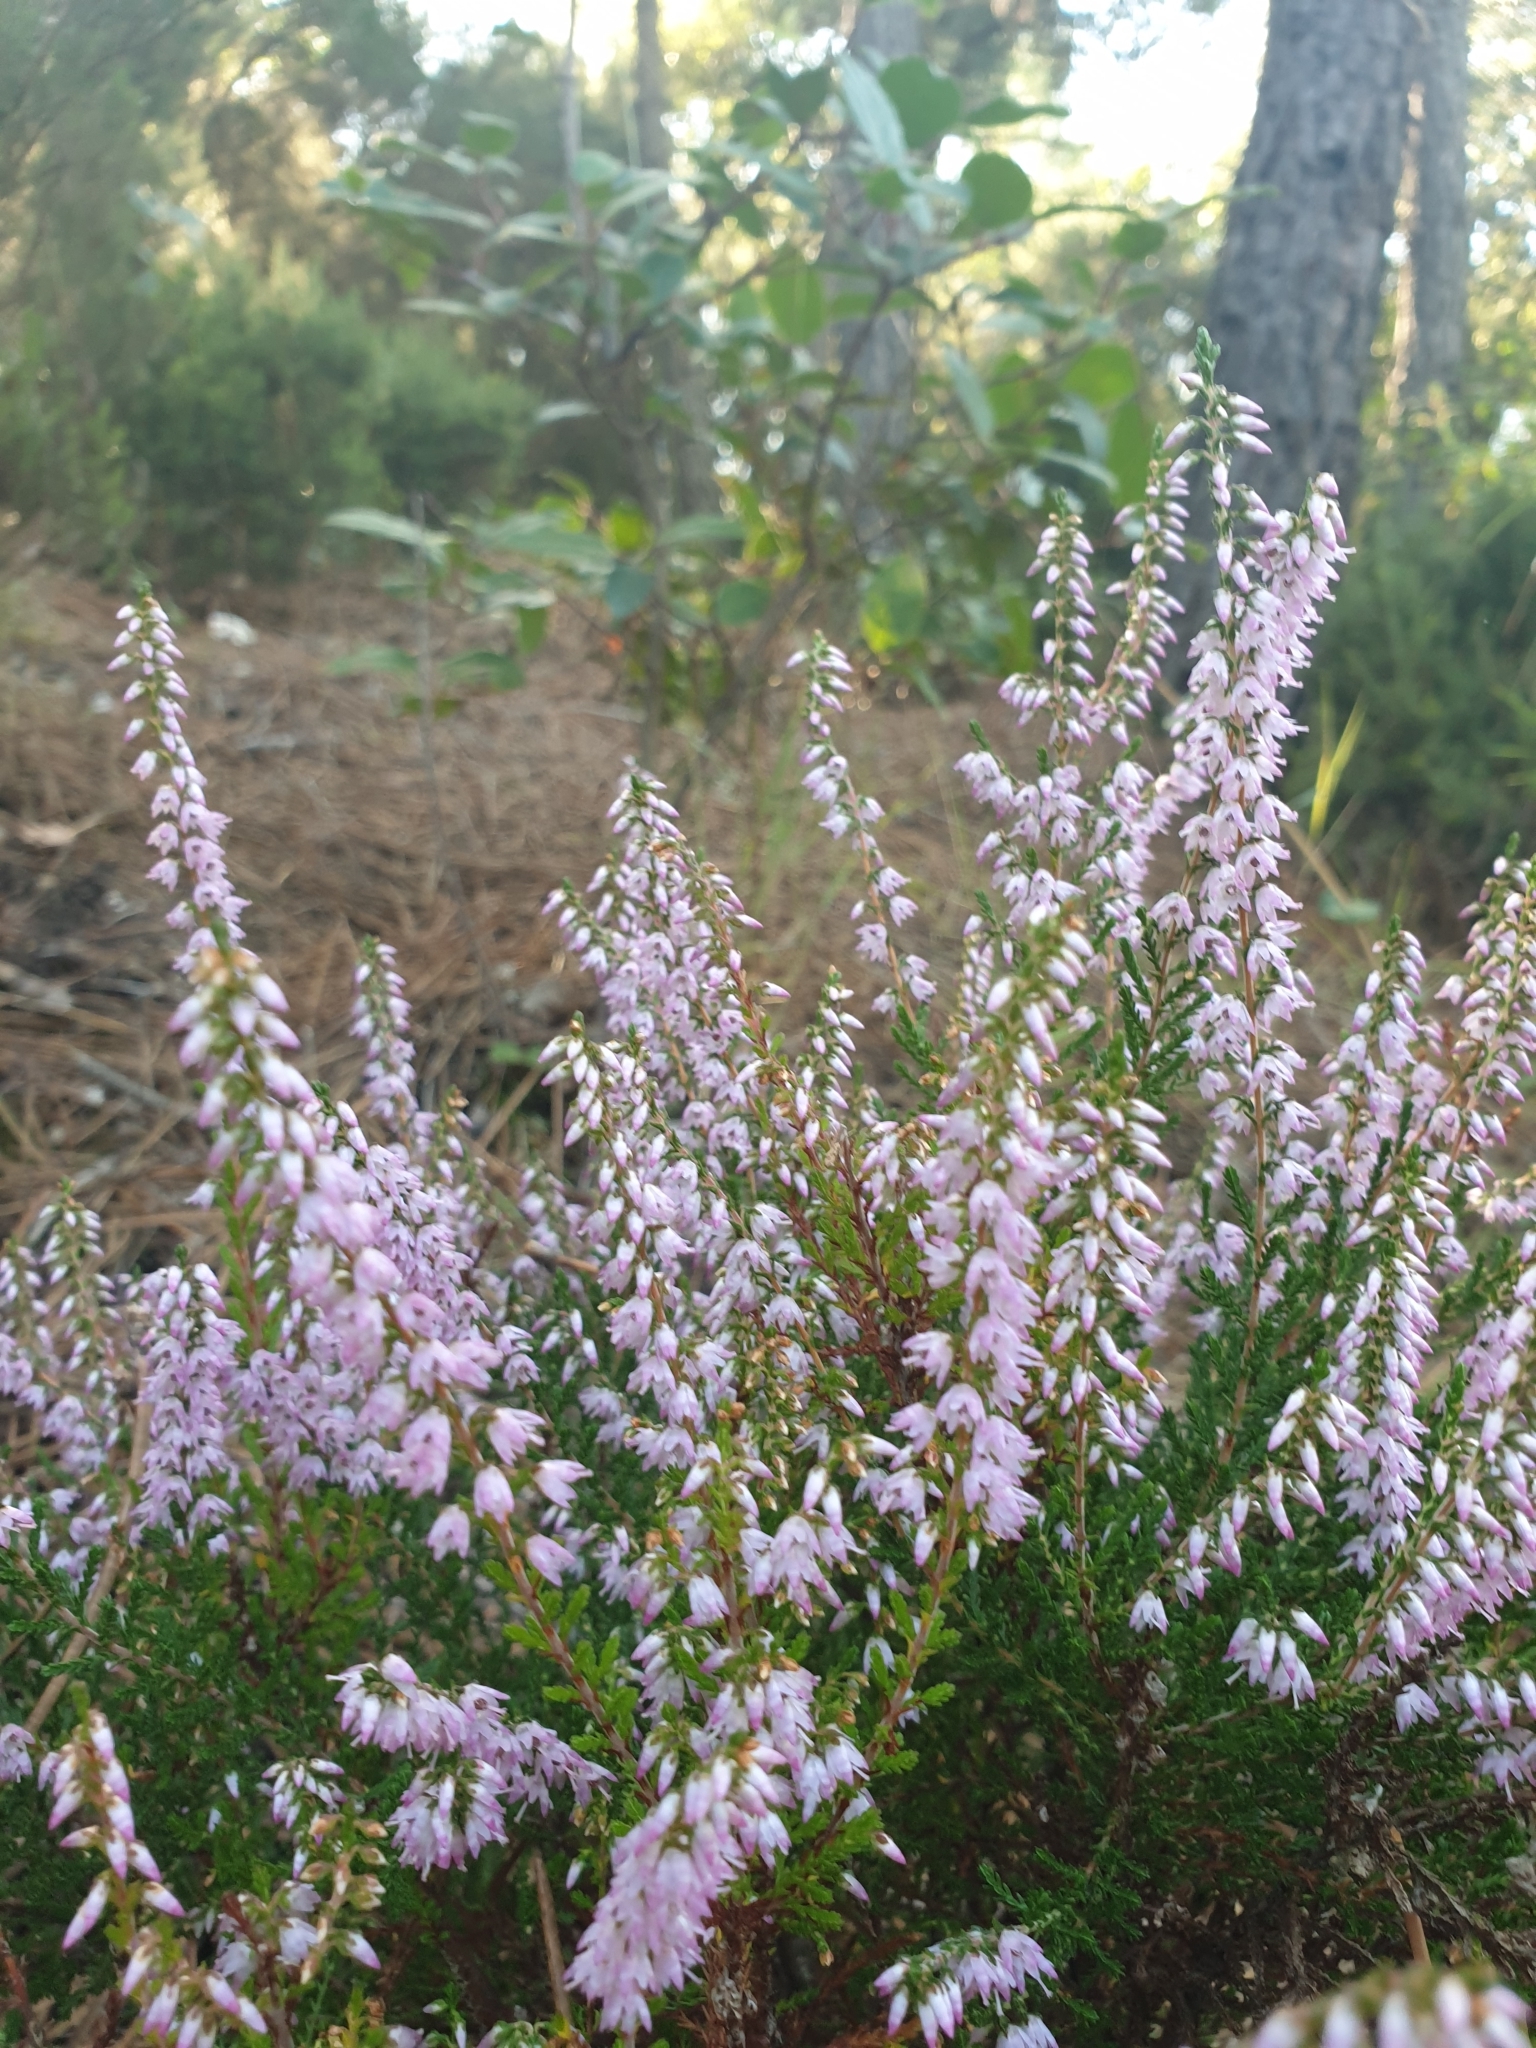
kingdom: Plantae
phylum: Tracheophyta
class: Magnoliopsida
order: Ericales
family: Ericaceae
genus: Calluna
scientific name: Calluna vulgaris
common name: Heather
